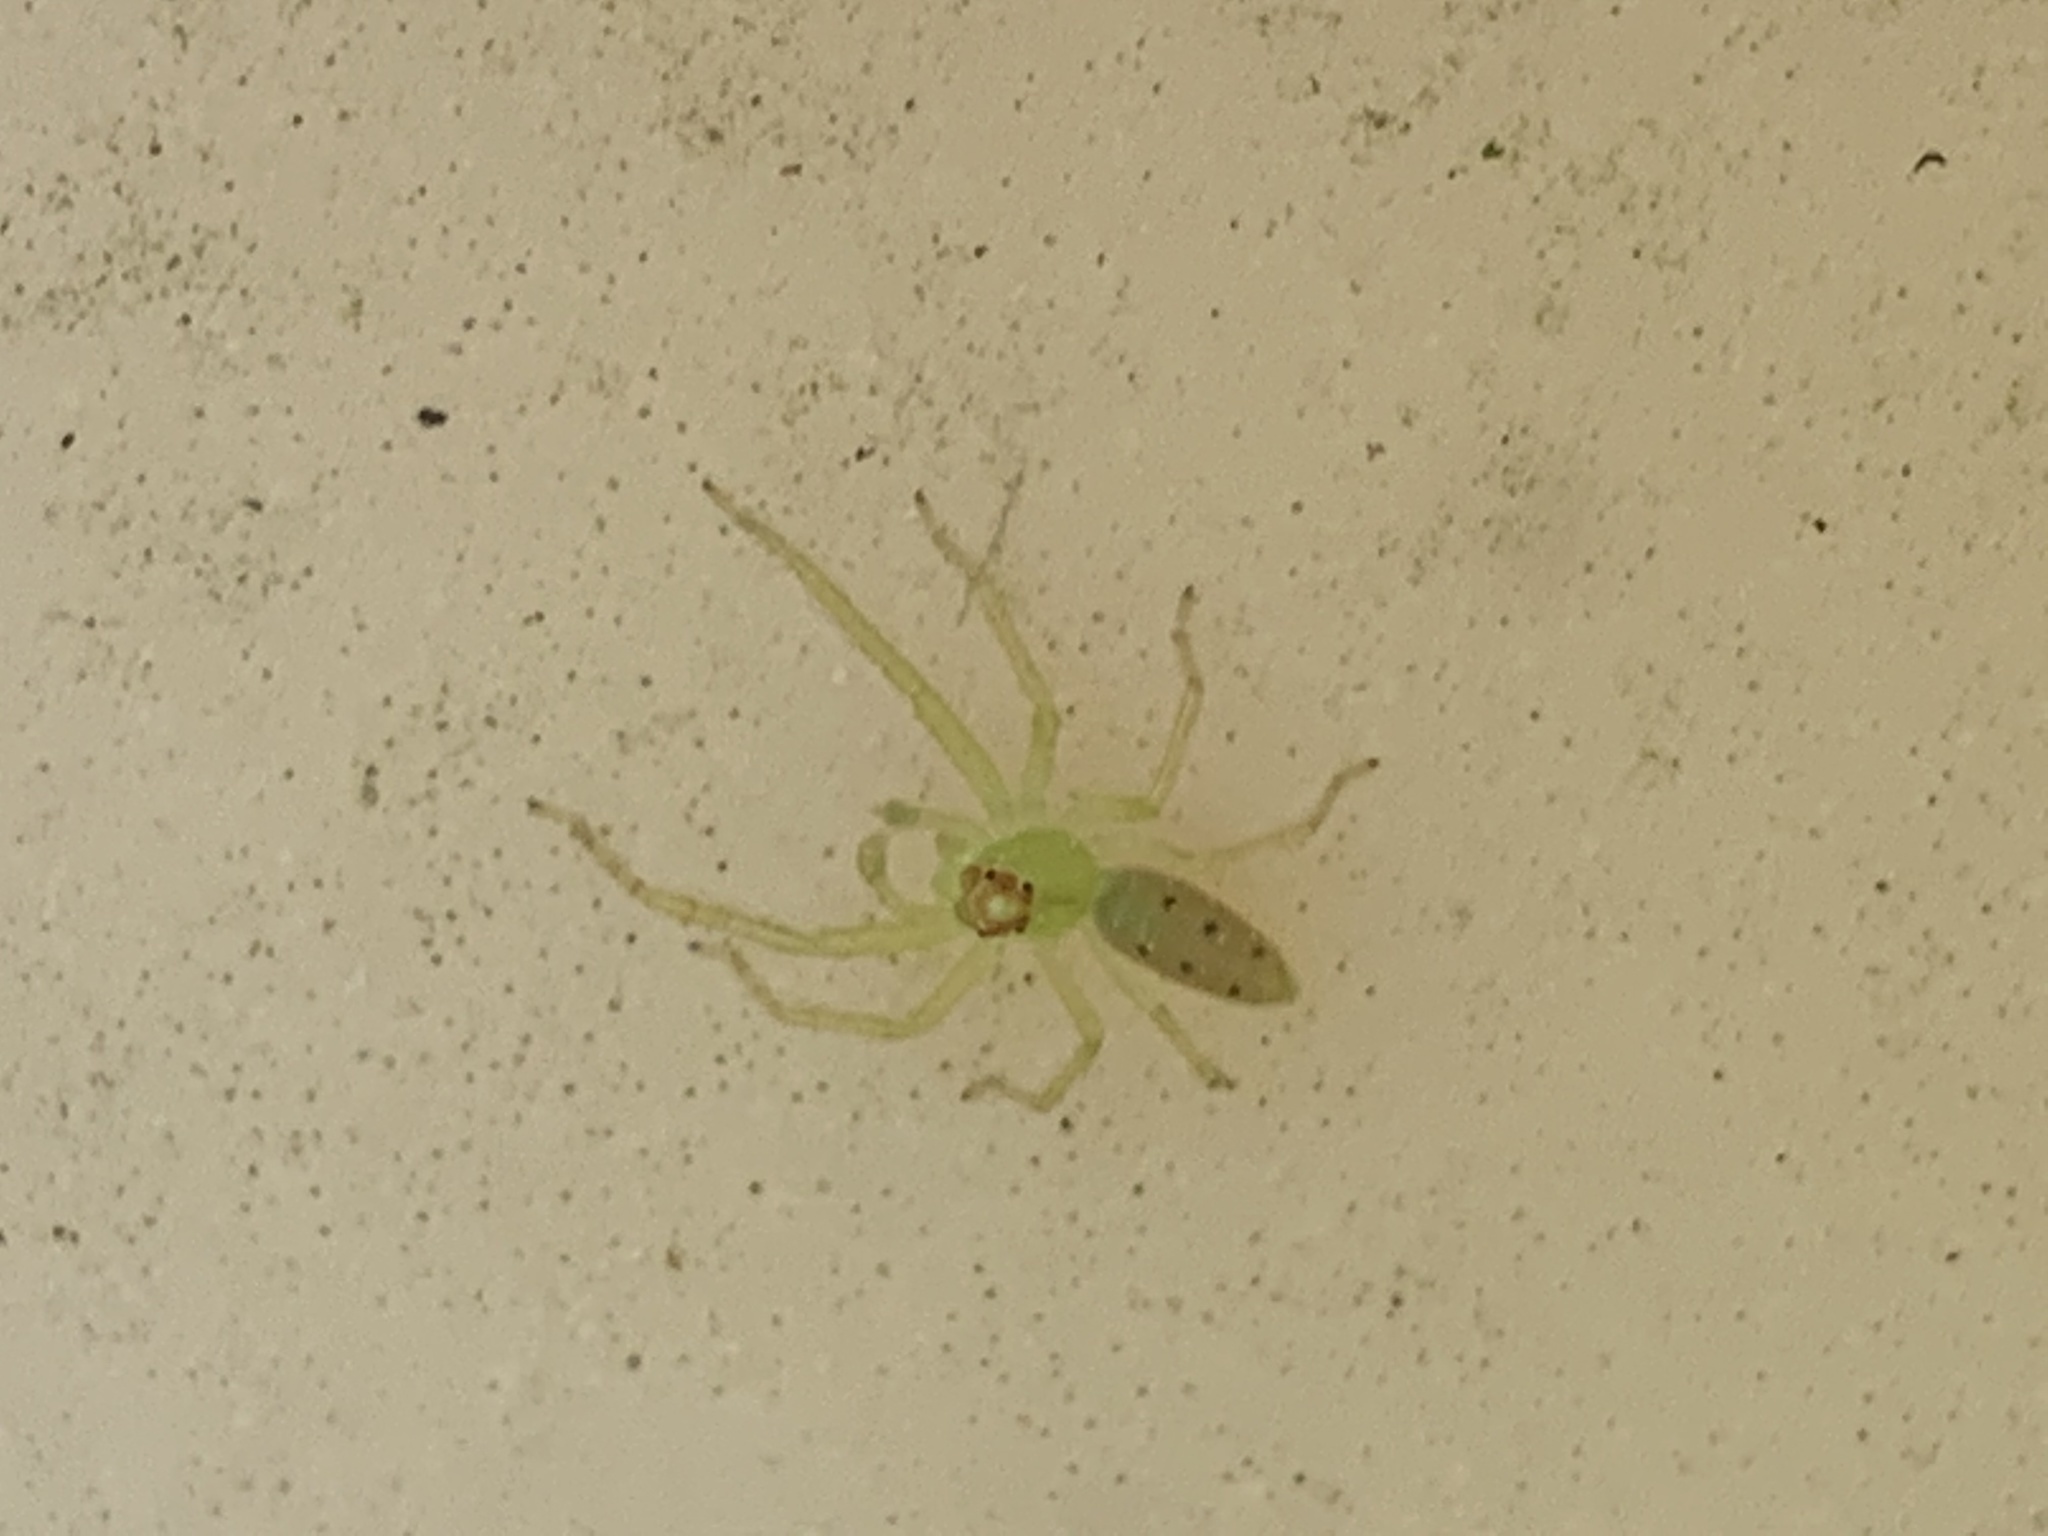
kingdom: Animalia
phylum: Arthropoda
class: Arachnida
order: Araneae
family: Salticidae
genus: Lyssomanes
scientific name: Lyssomanes viridis
